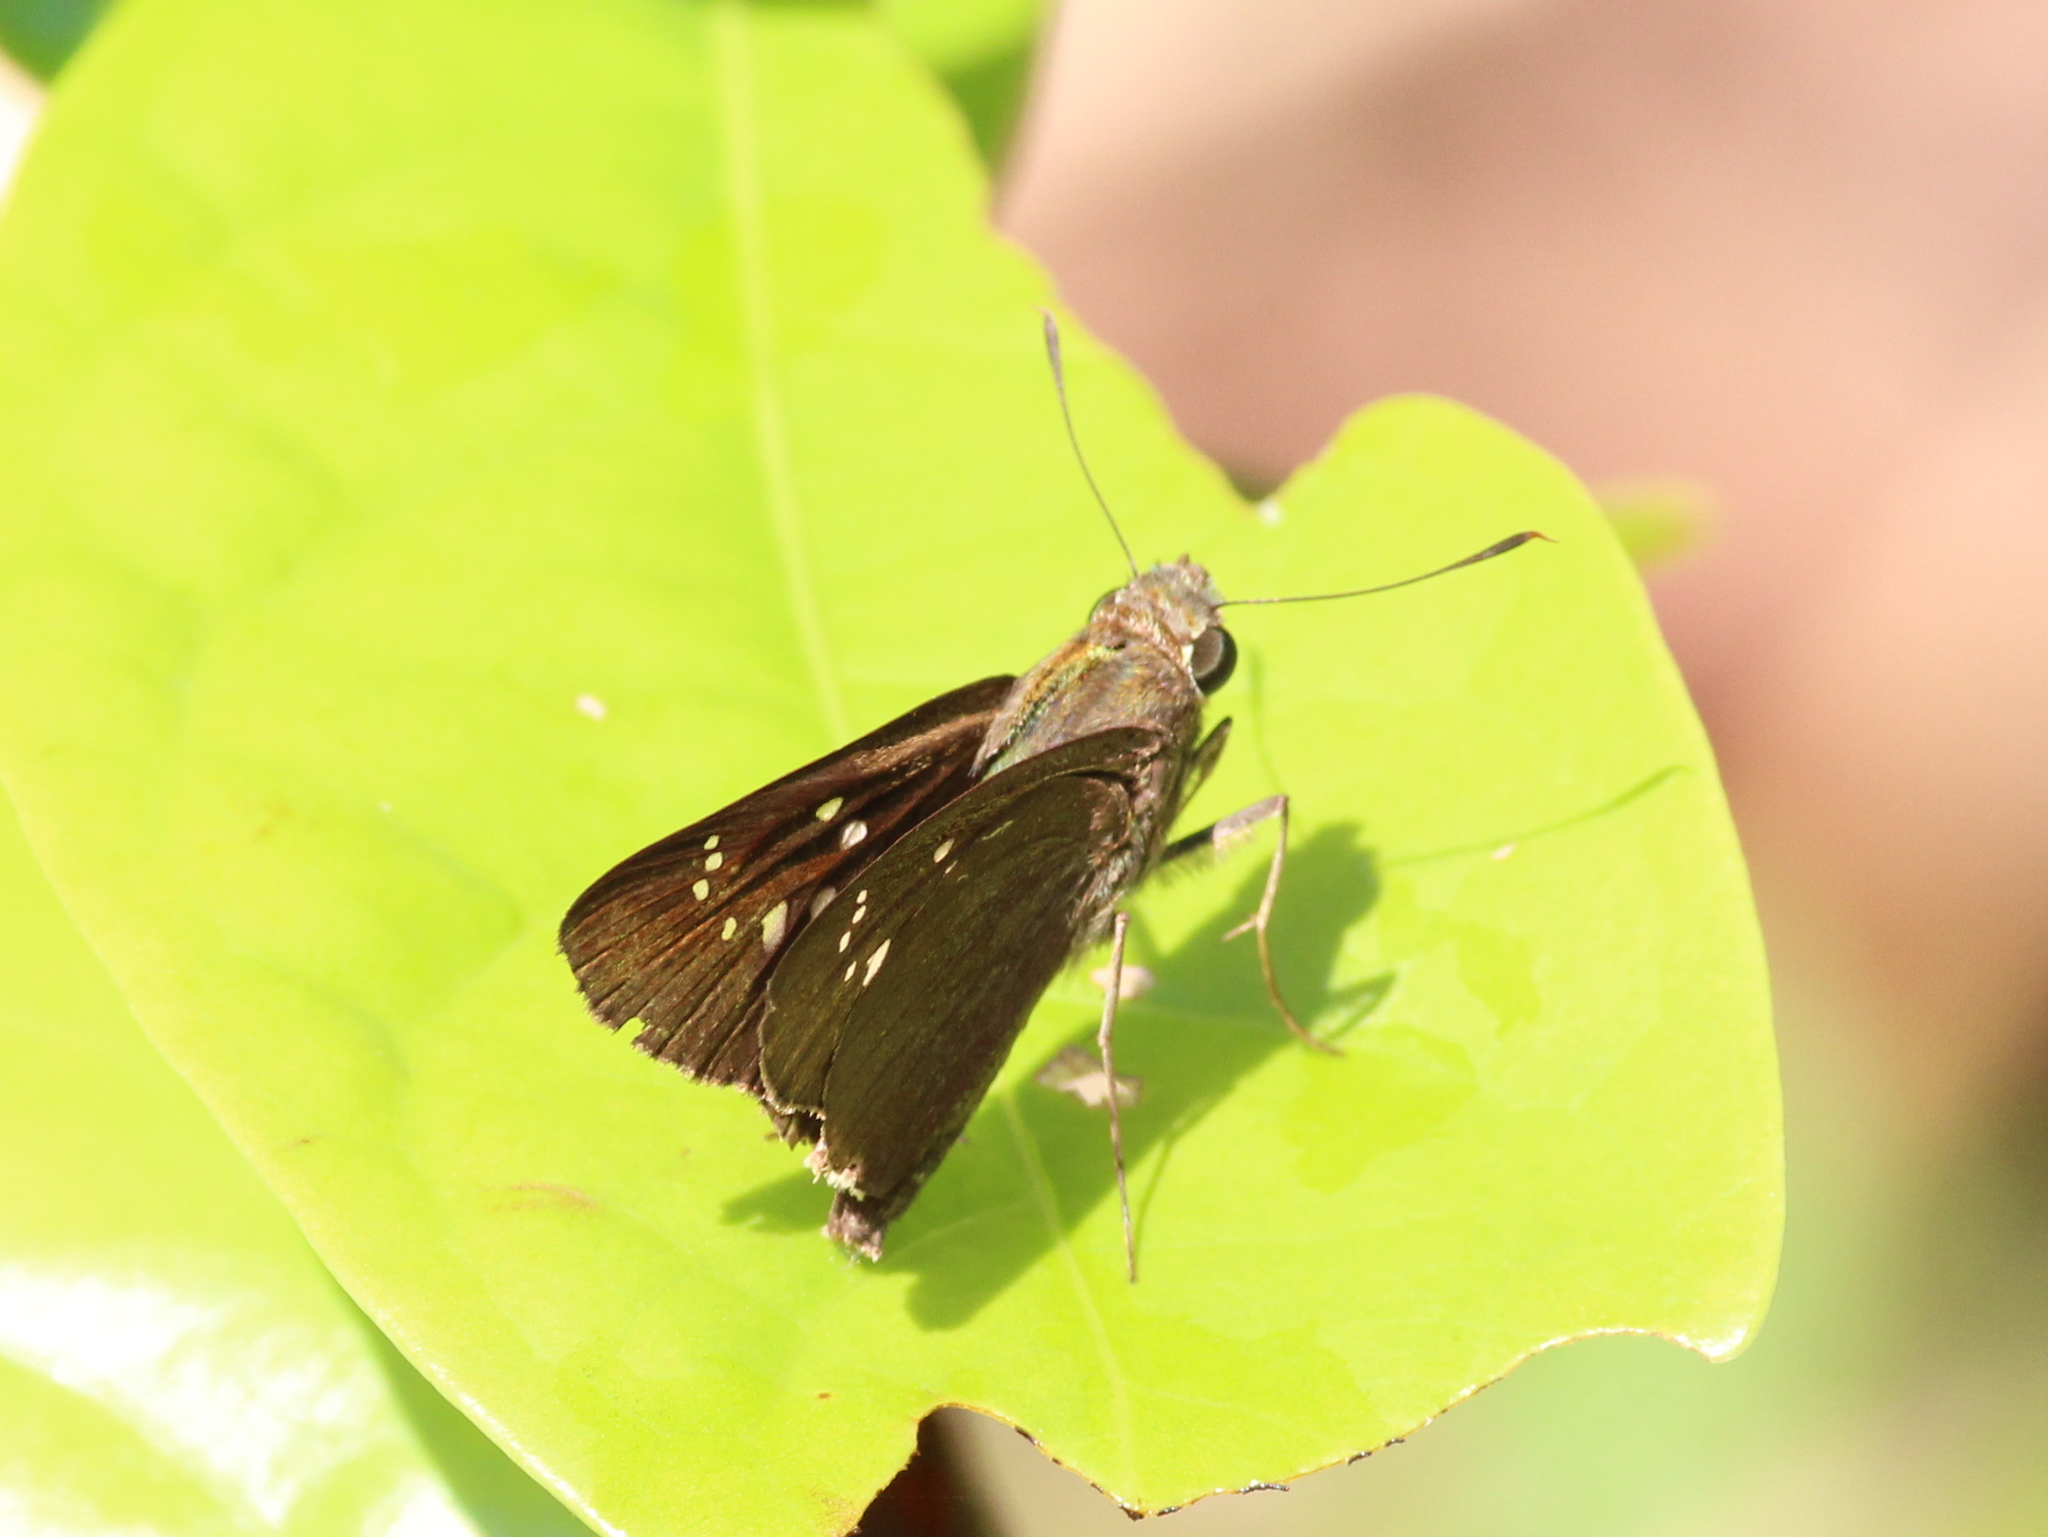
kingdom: Animalia
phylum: Arthropoda
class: Insecta
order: Lepidoptera
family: Hesperiidae
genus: Baoris
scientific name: Baoris farri
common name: Paintbrush swift
